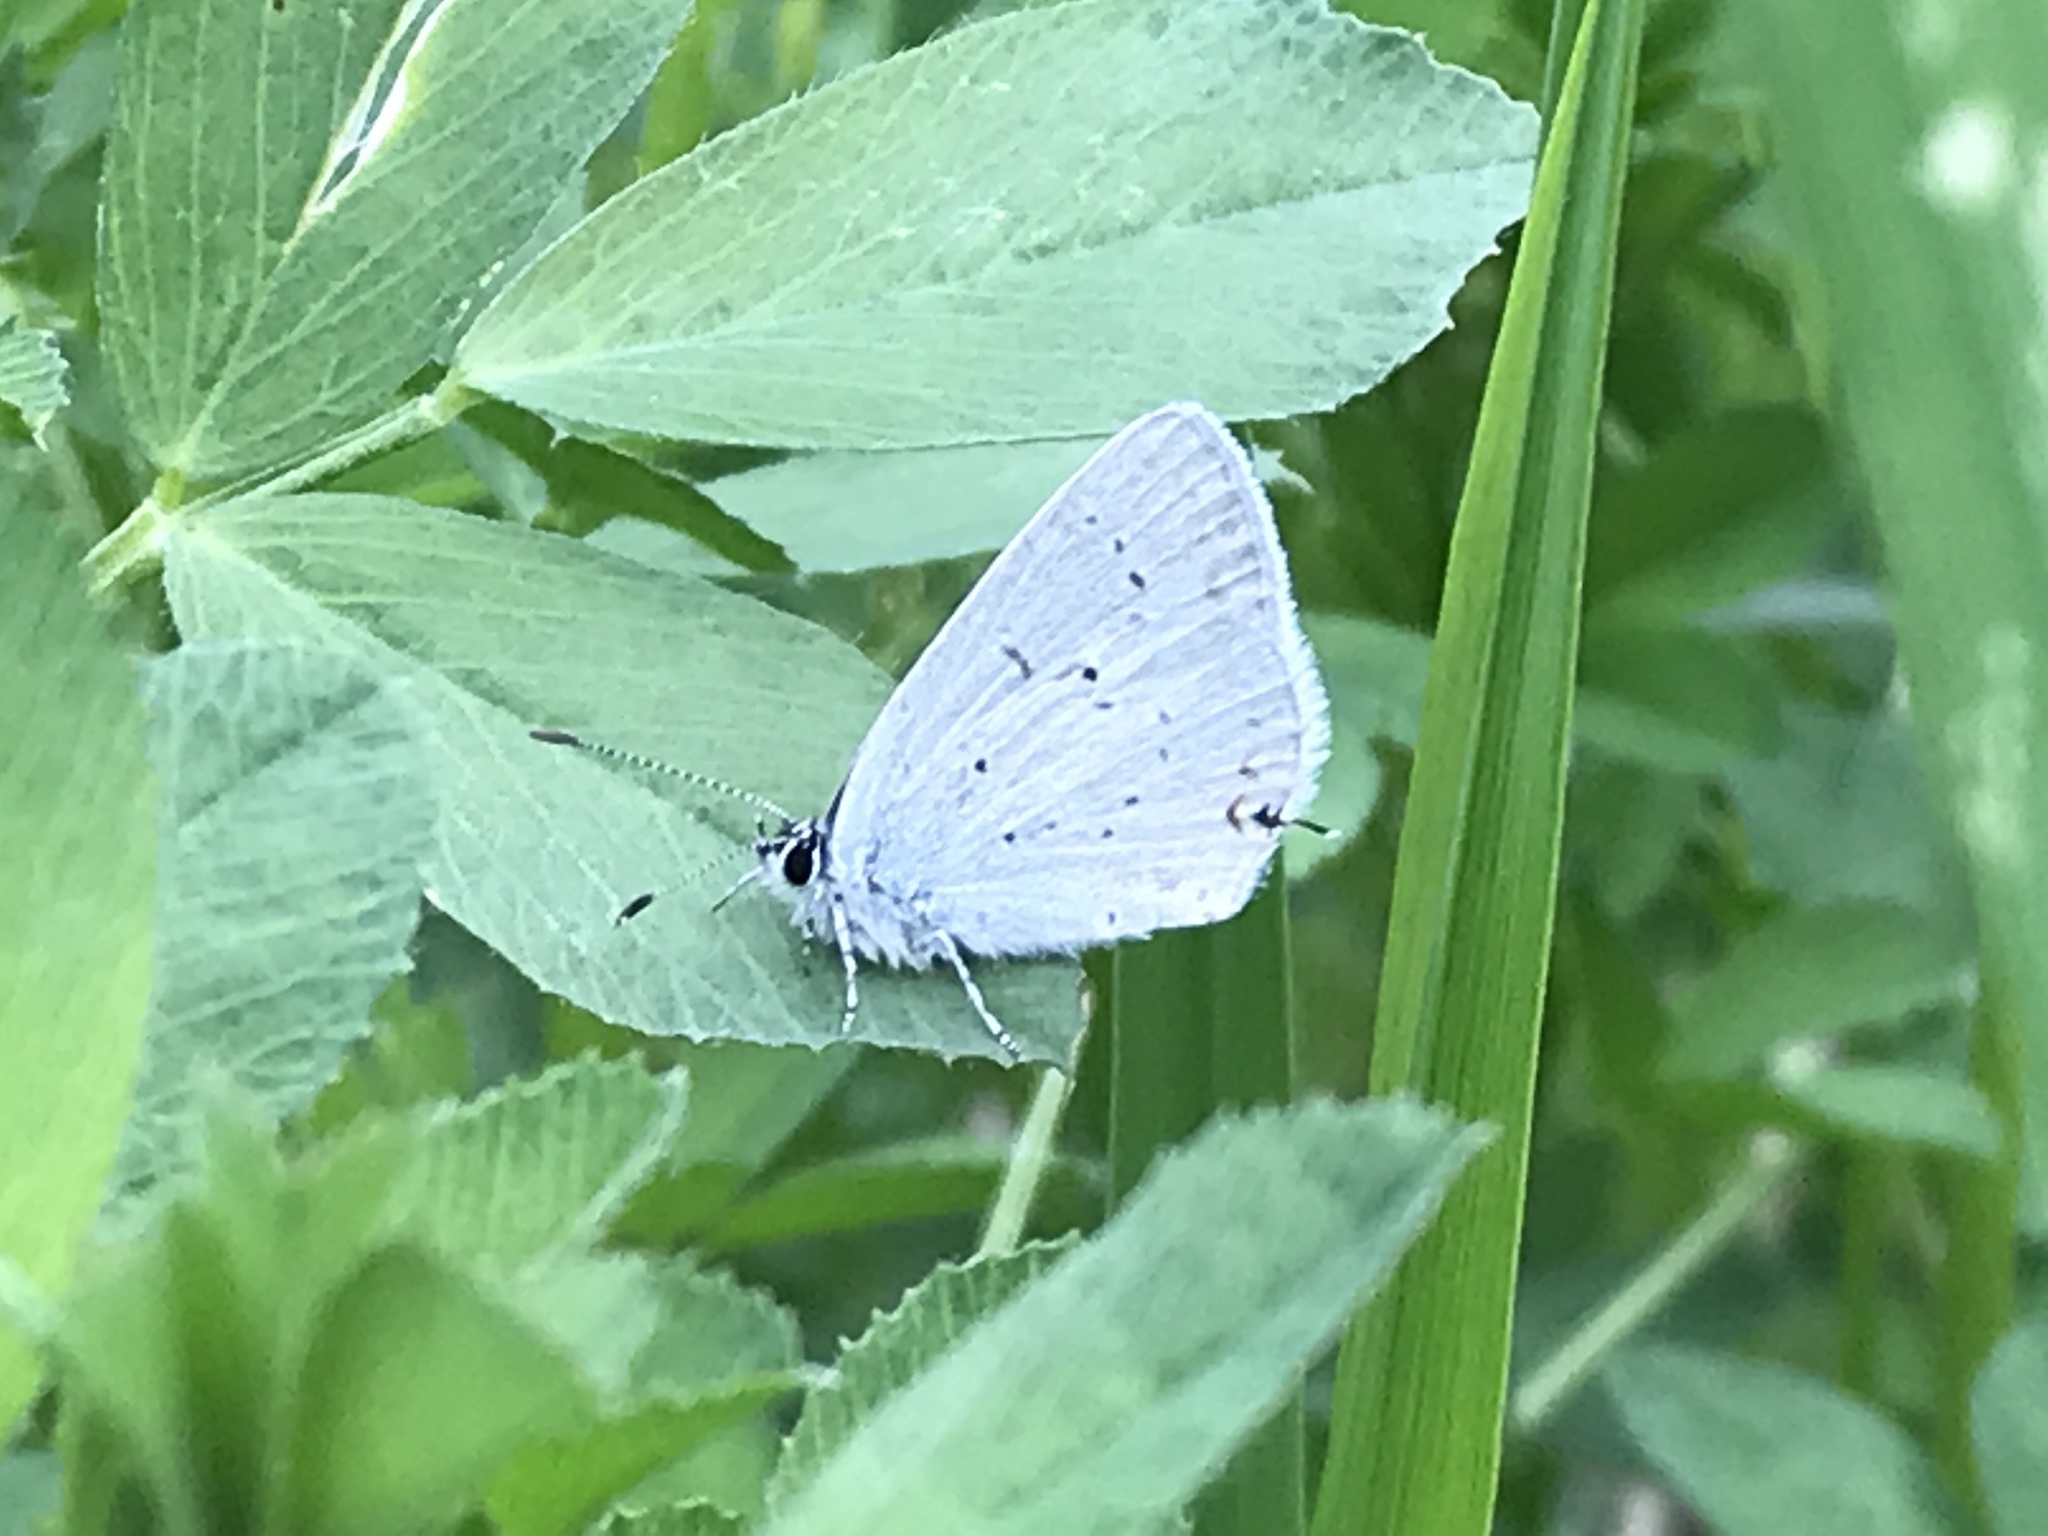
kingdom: Animalia
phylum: Arthropoda
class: Insecta
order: Lepidoptera
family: Lycaenidae
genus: Elkalyce
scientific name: Elkalyce amyntula
